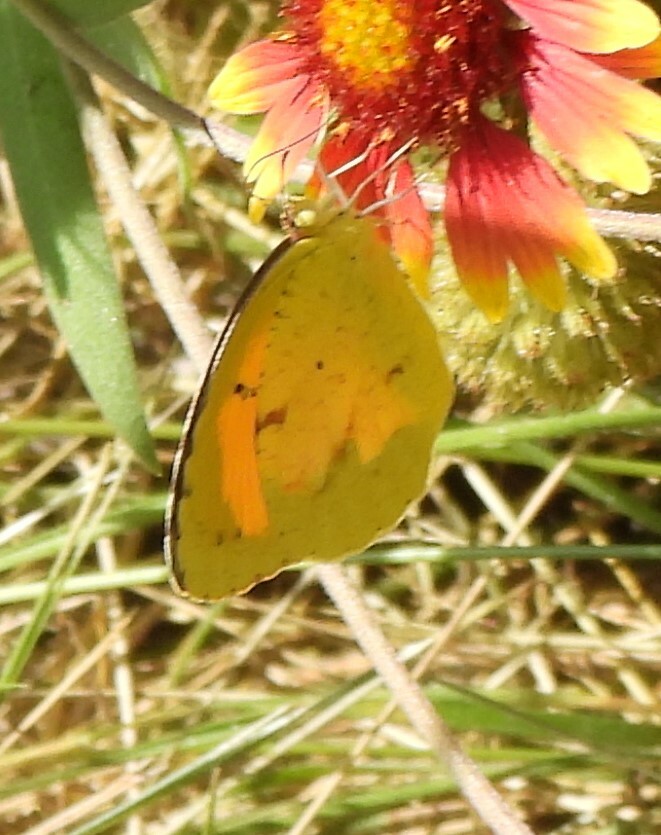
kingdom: Animalia
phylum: Arthropoda
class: Insecta
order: Lepidoptera
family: Pieridae
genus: Abaeis
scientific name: Abaeis nicippe
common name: Sleepy orange
